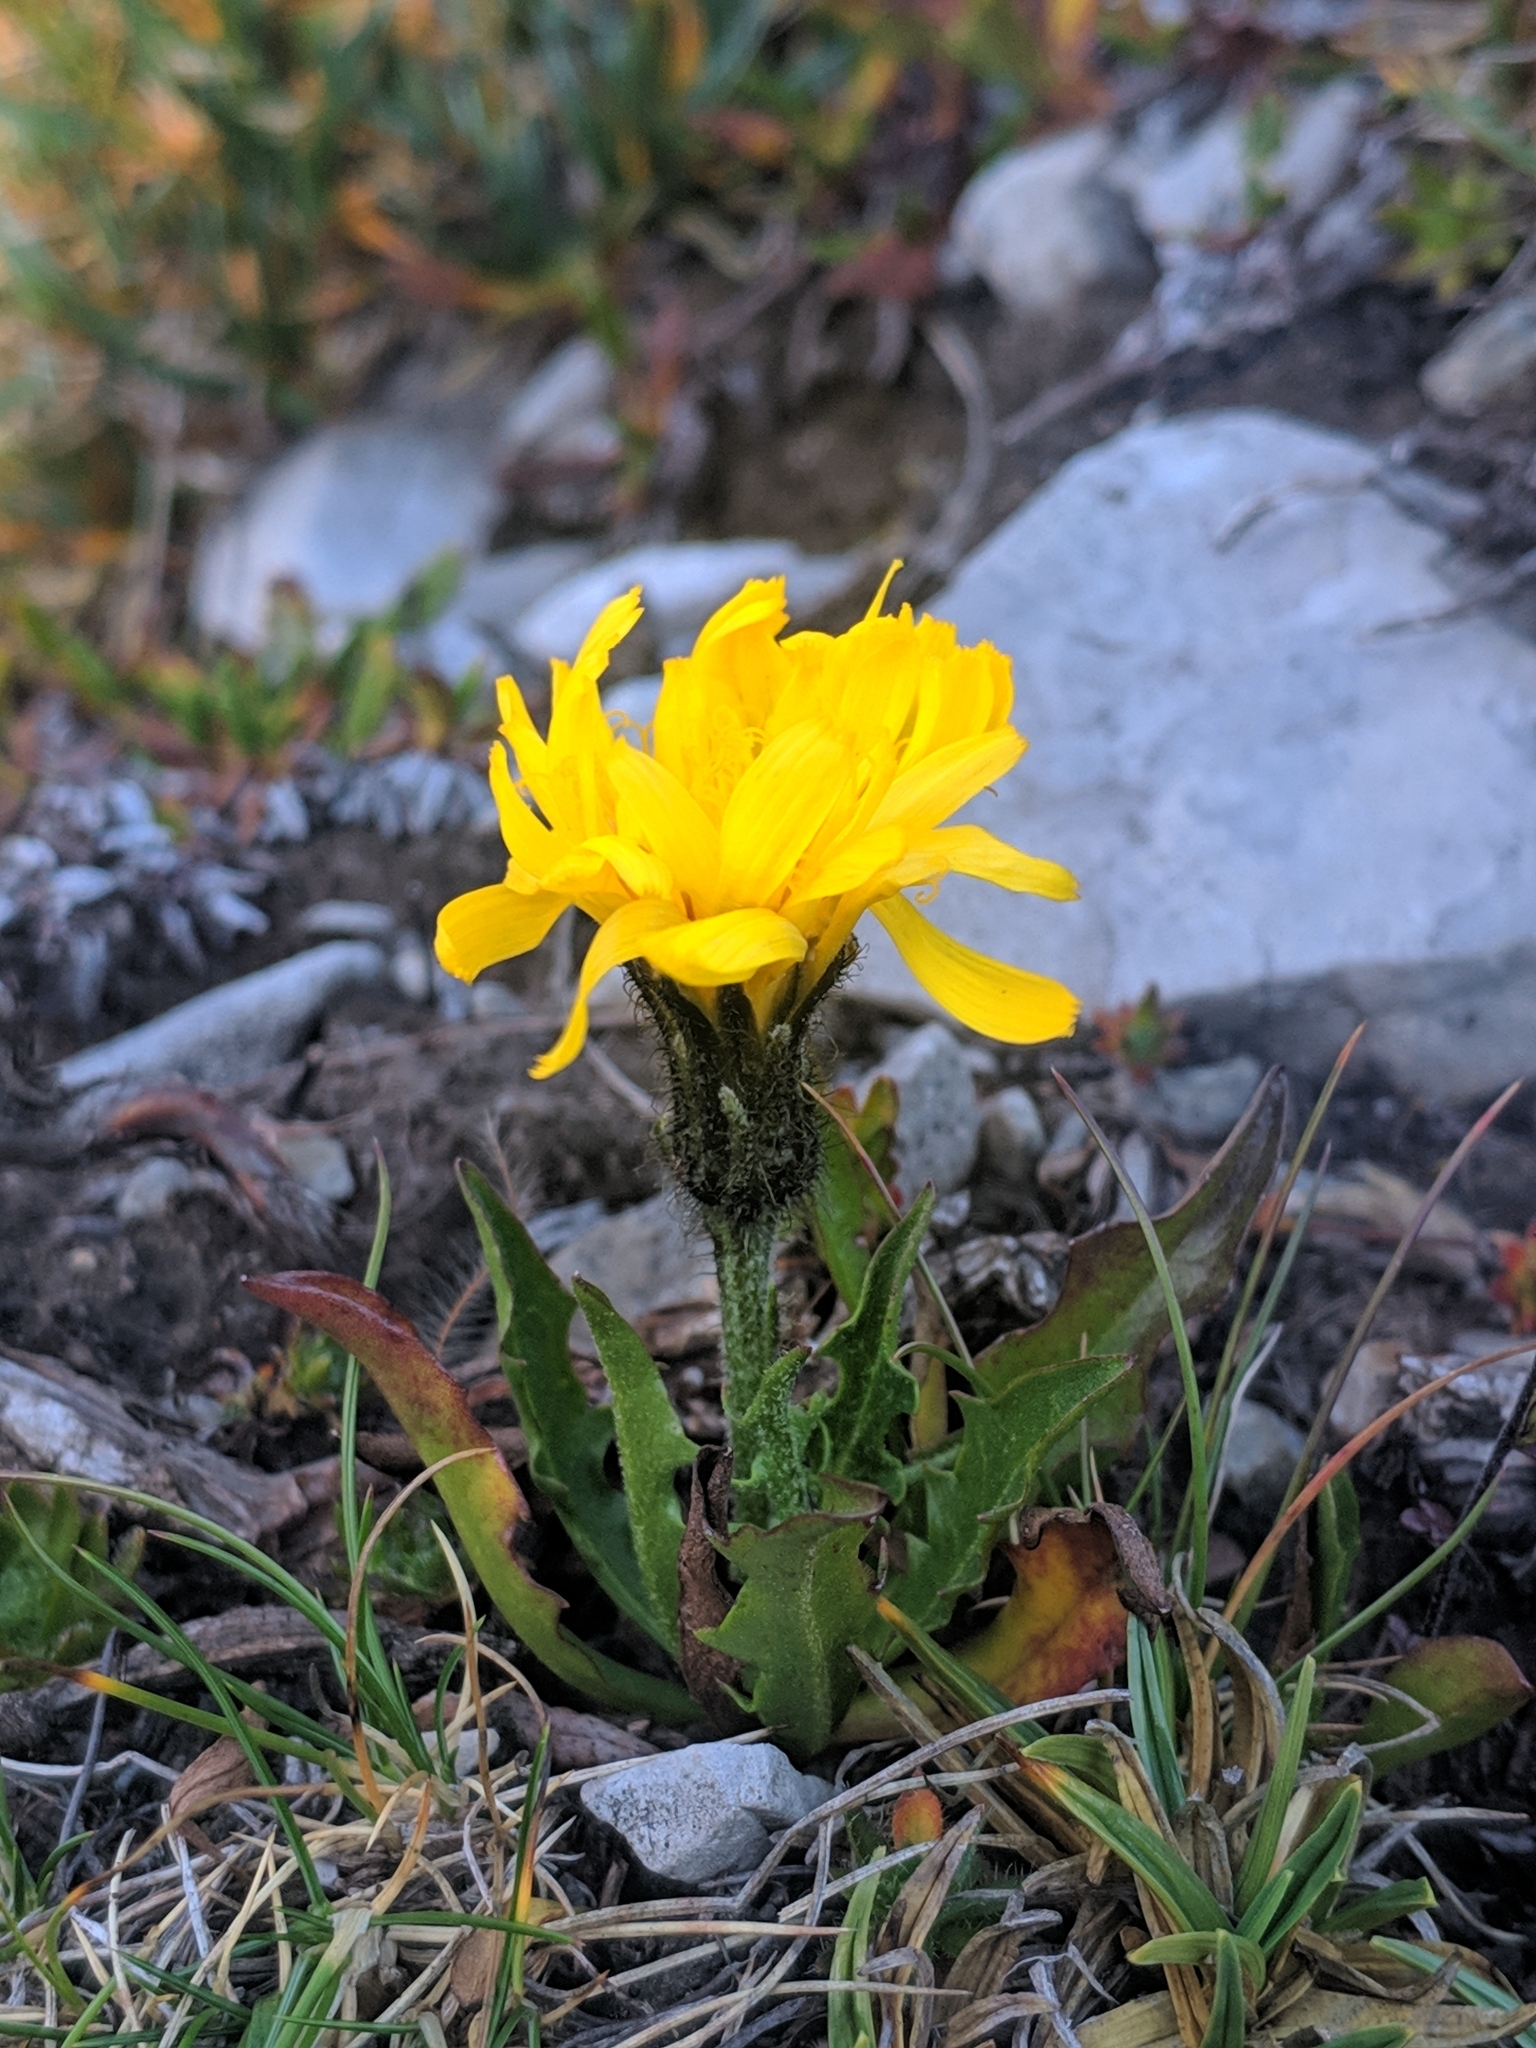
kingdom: Plantae
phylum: Tracheophyta
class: Magnoliopsida
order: Asterales
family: Asteraceae
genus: Crepis
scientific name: Crepis terglouensis
